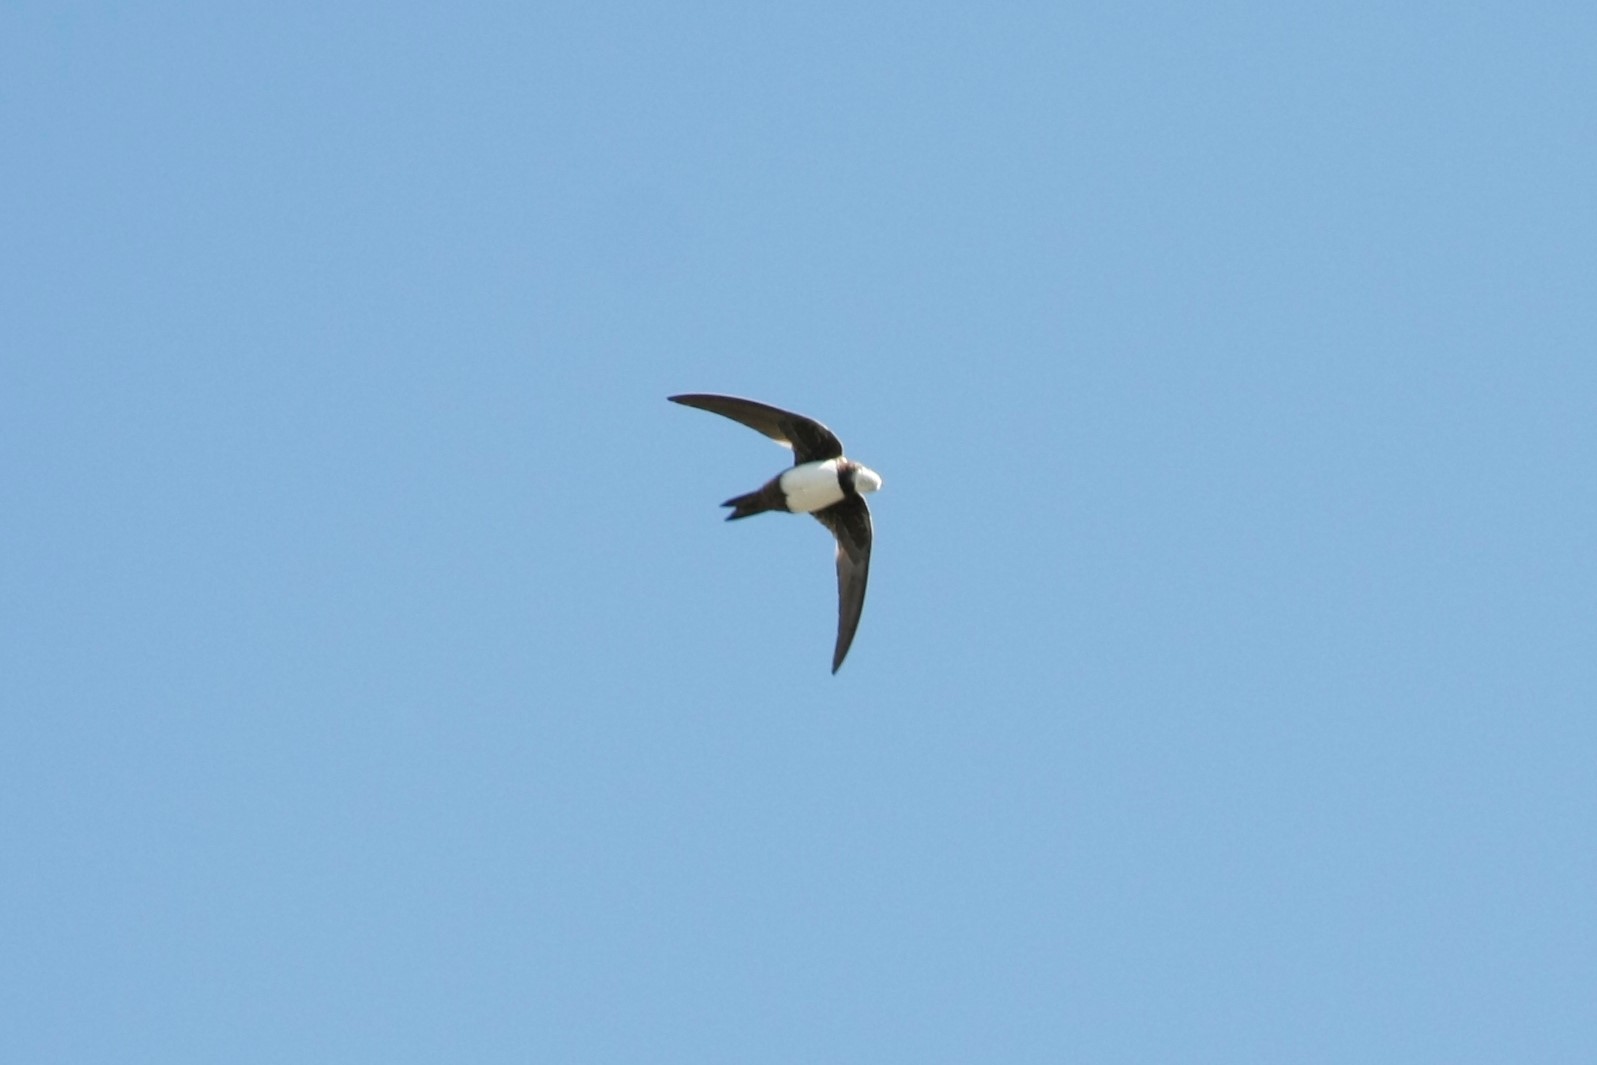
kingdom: Animalia
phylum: Chordata
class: Aves
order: Apodiformes
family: Apodidae
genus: Tachymarptis
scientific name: Tachymarptis melba
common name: Alpine swift
